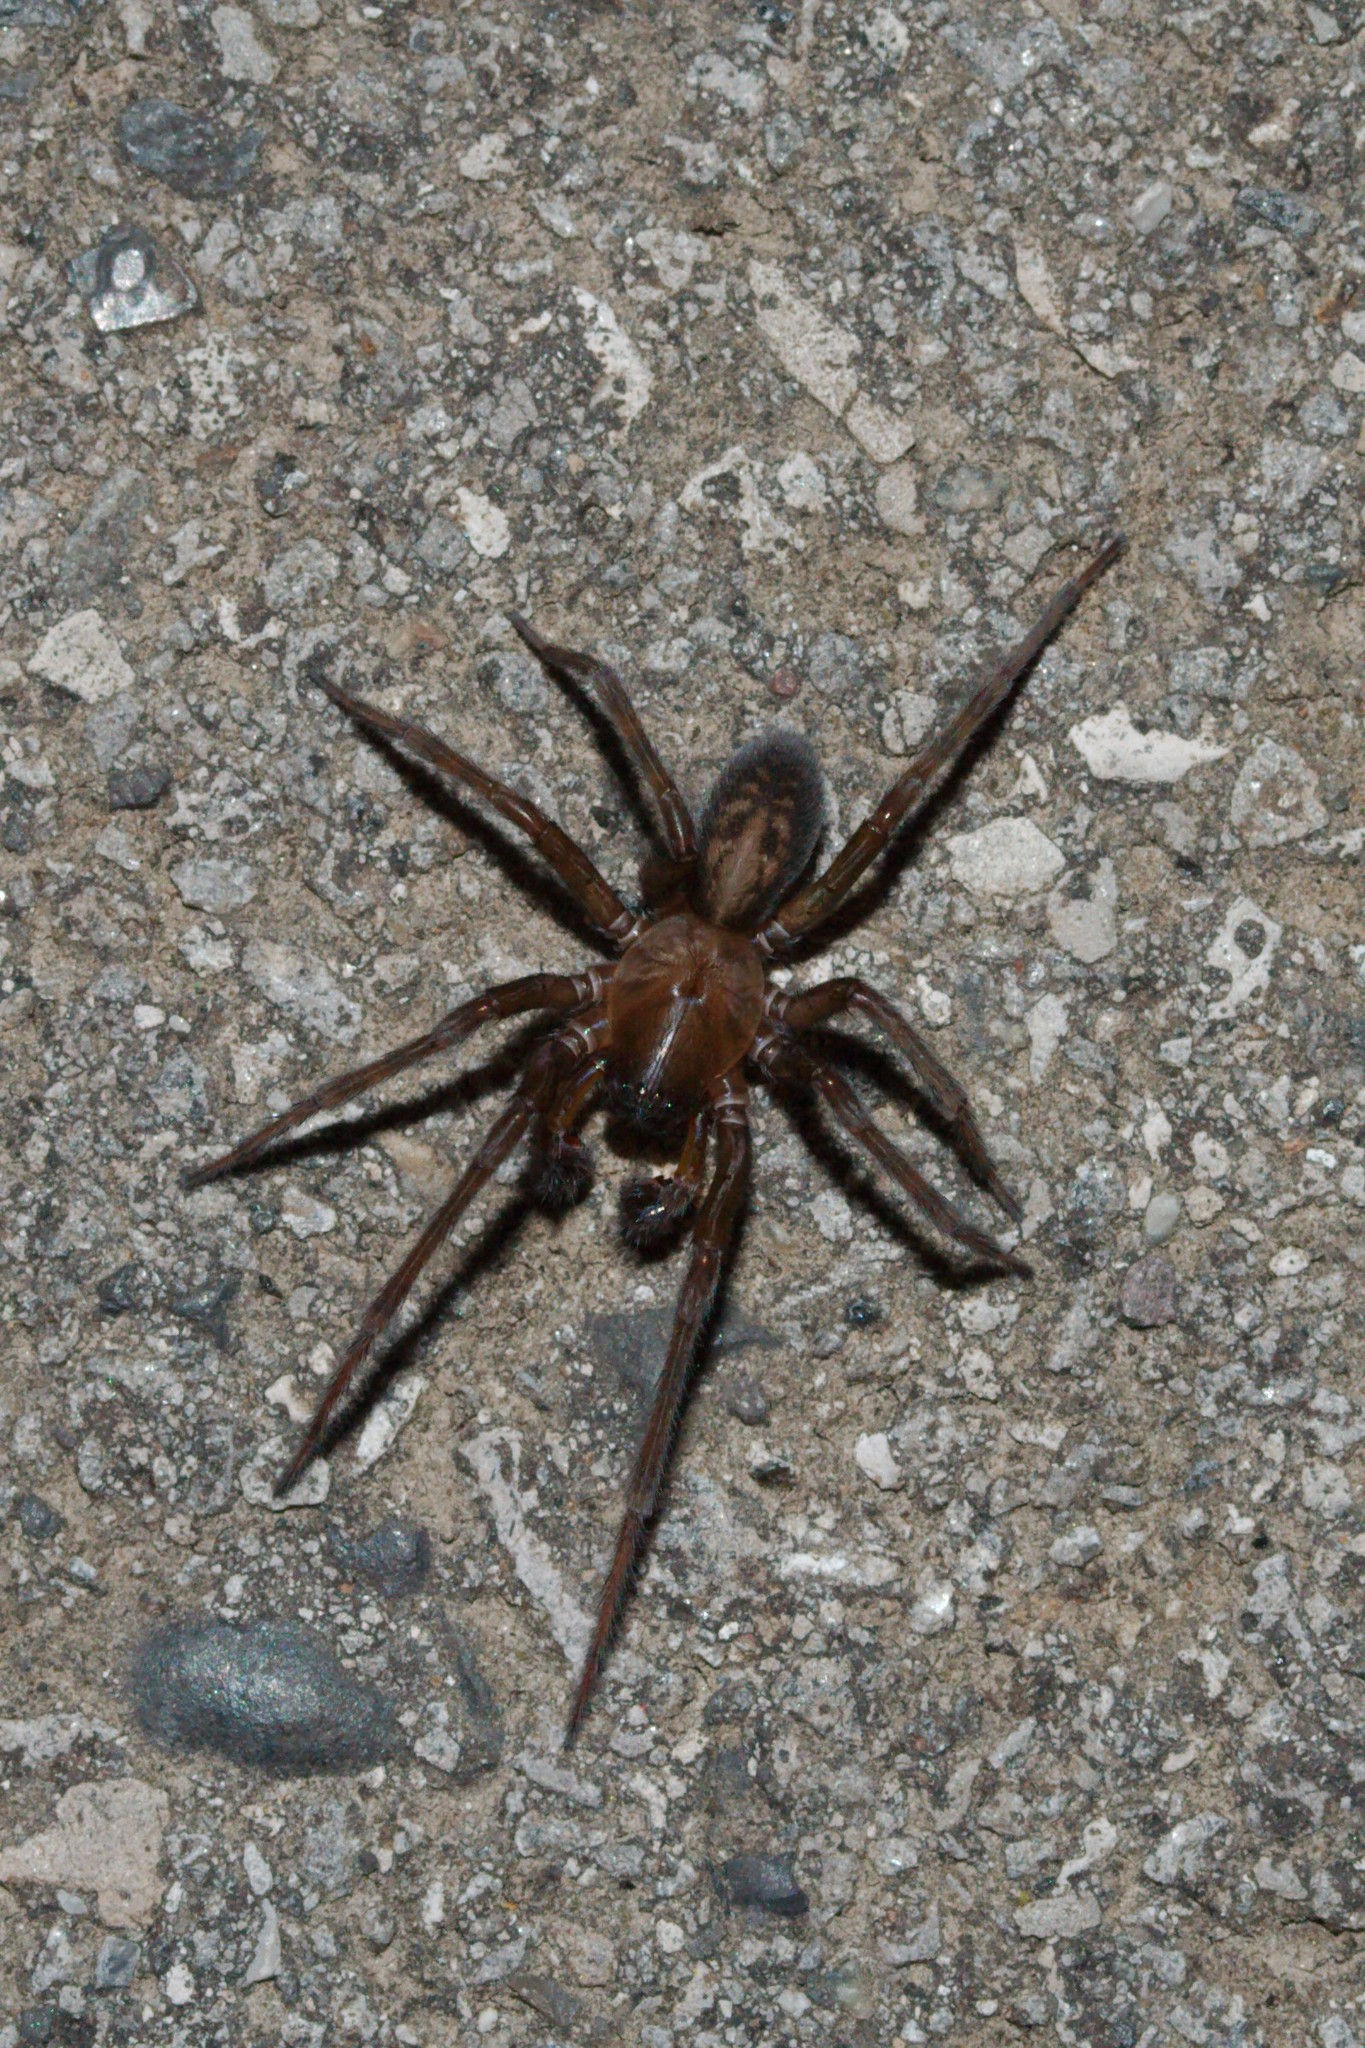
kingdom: Animalia
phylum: Arthropoda
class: Arachnida
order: Araneae
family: Amaurobiidae
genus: Amaurobius
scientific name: Amaurobius ferox
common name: Black laceweaver
